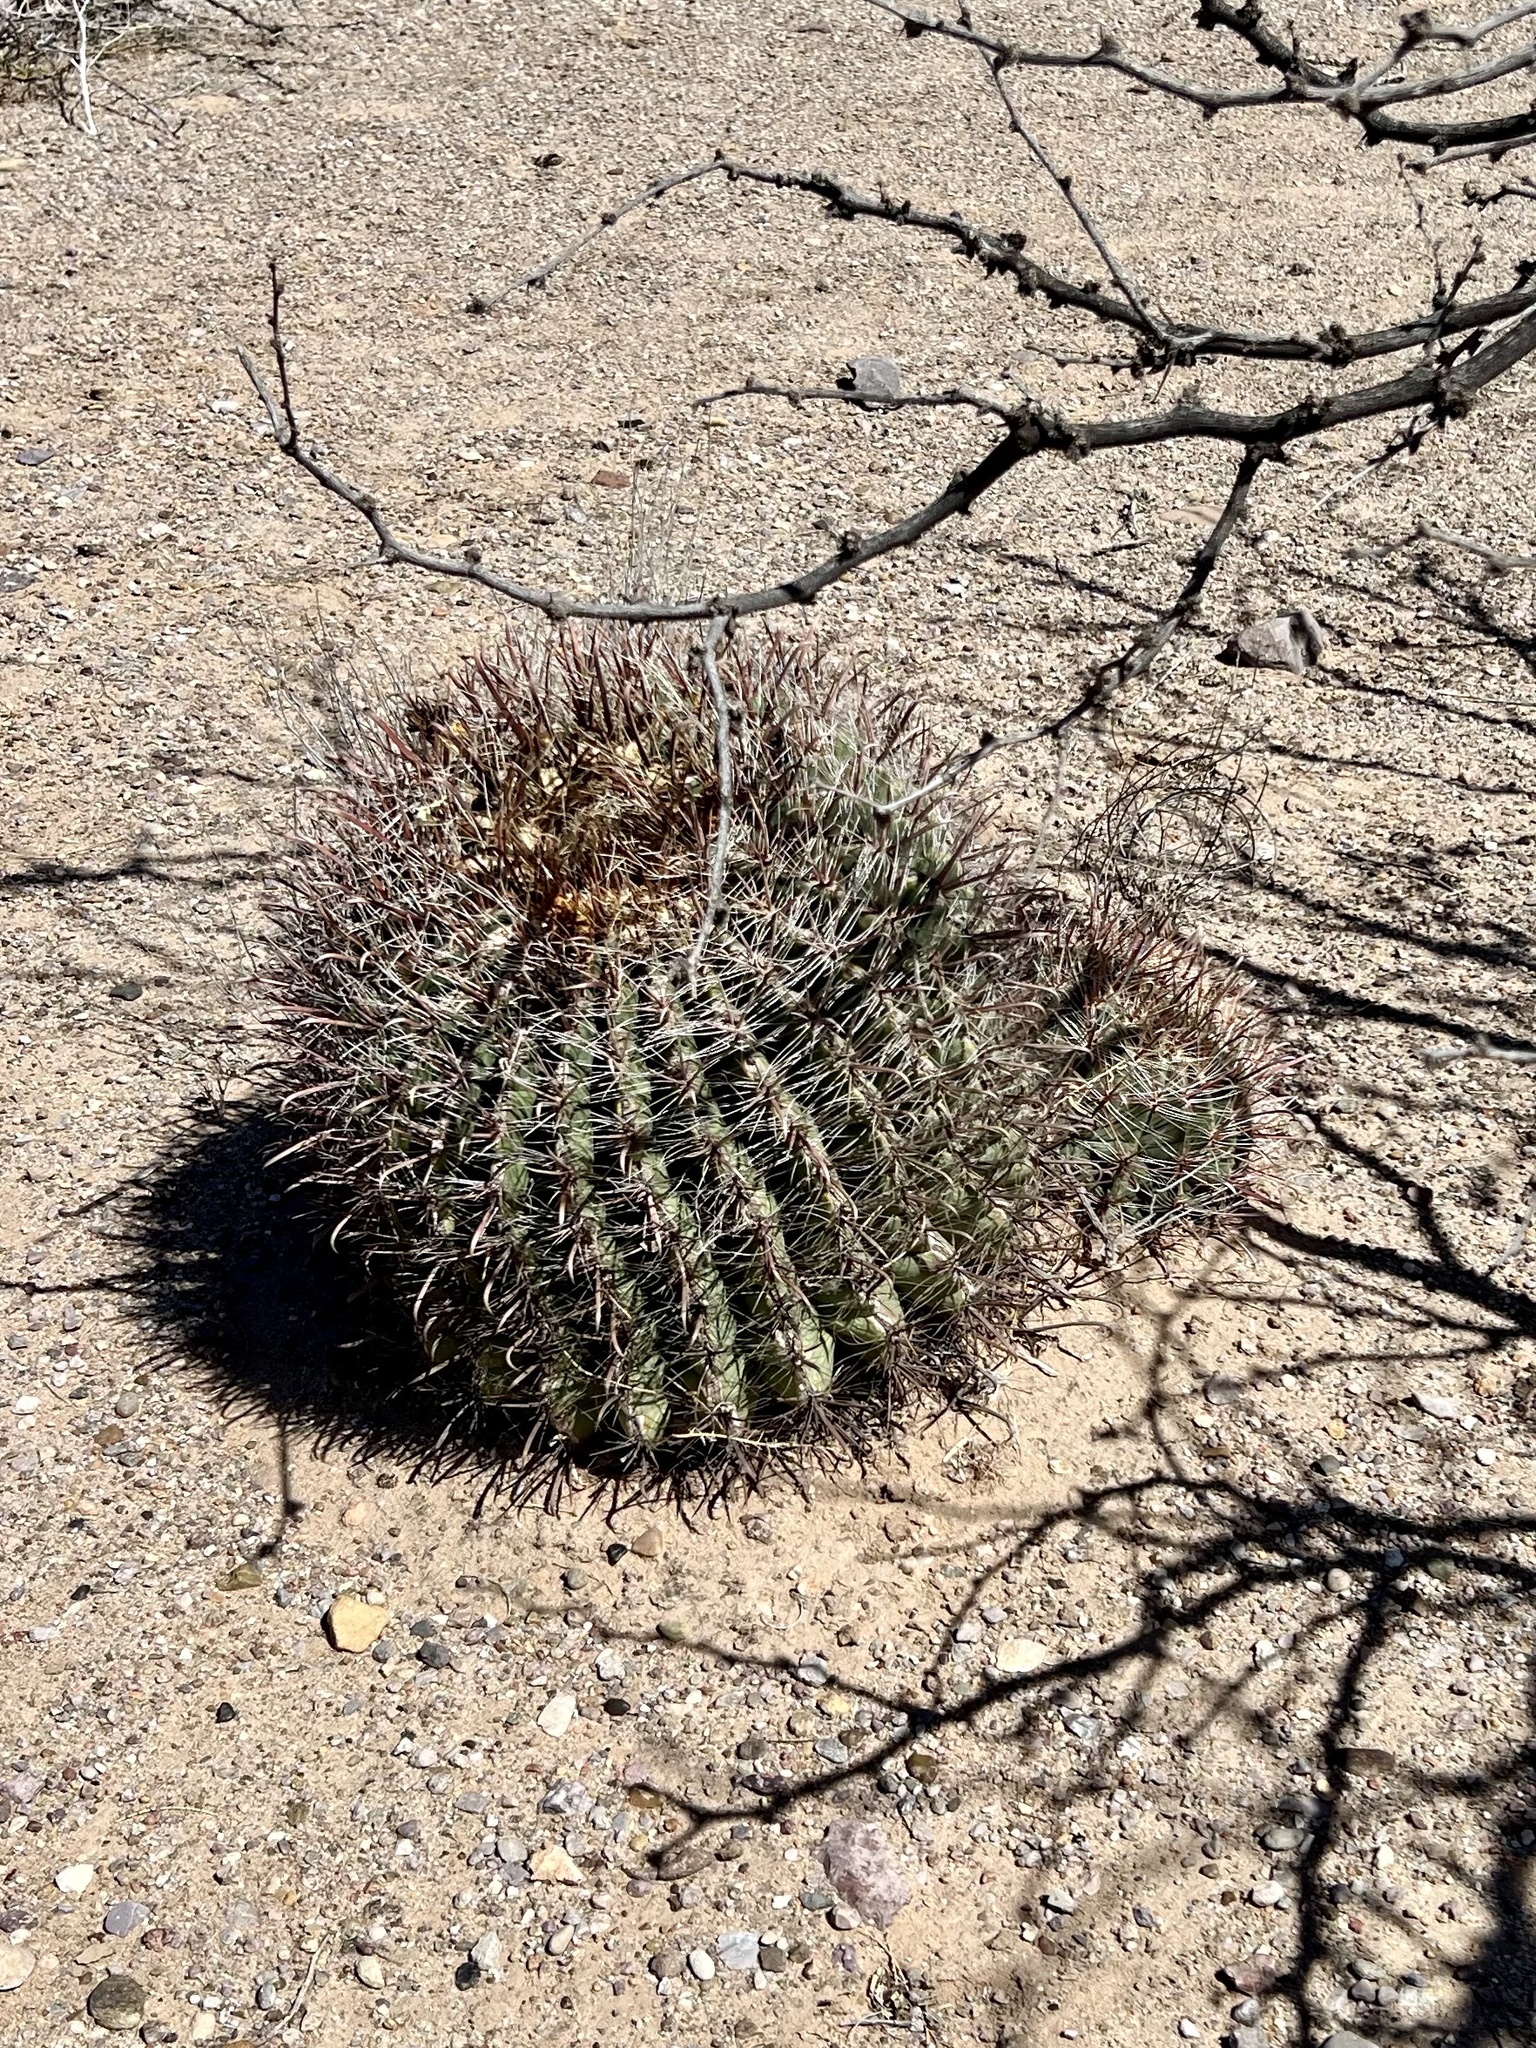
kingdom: Plantae
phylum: Tracheophyta
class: Magnoliopsida
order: Caryophyllales
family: Cactaceae
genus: Ferocactus
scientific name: Ferocactus wislizeni
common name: Candy barrel cactus
